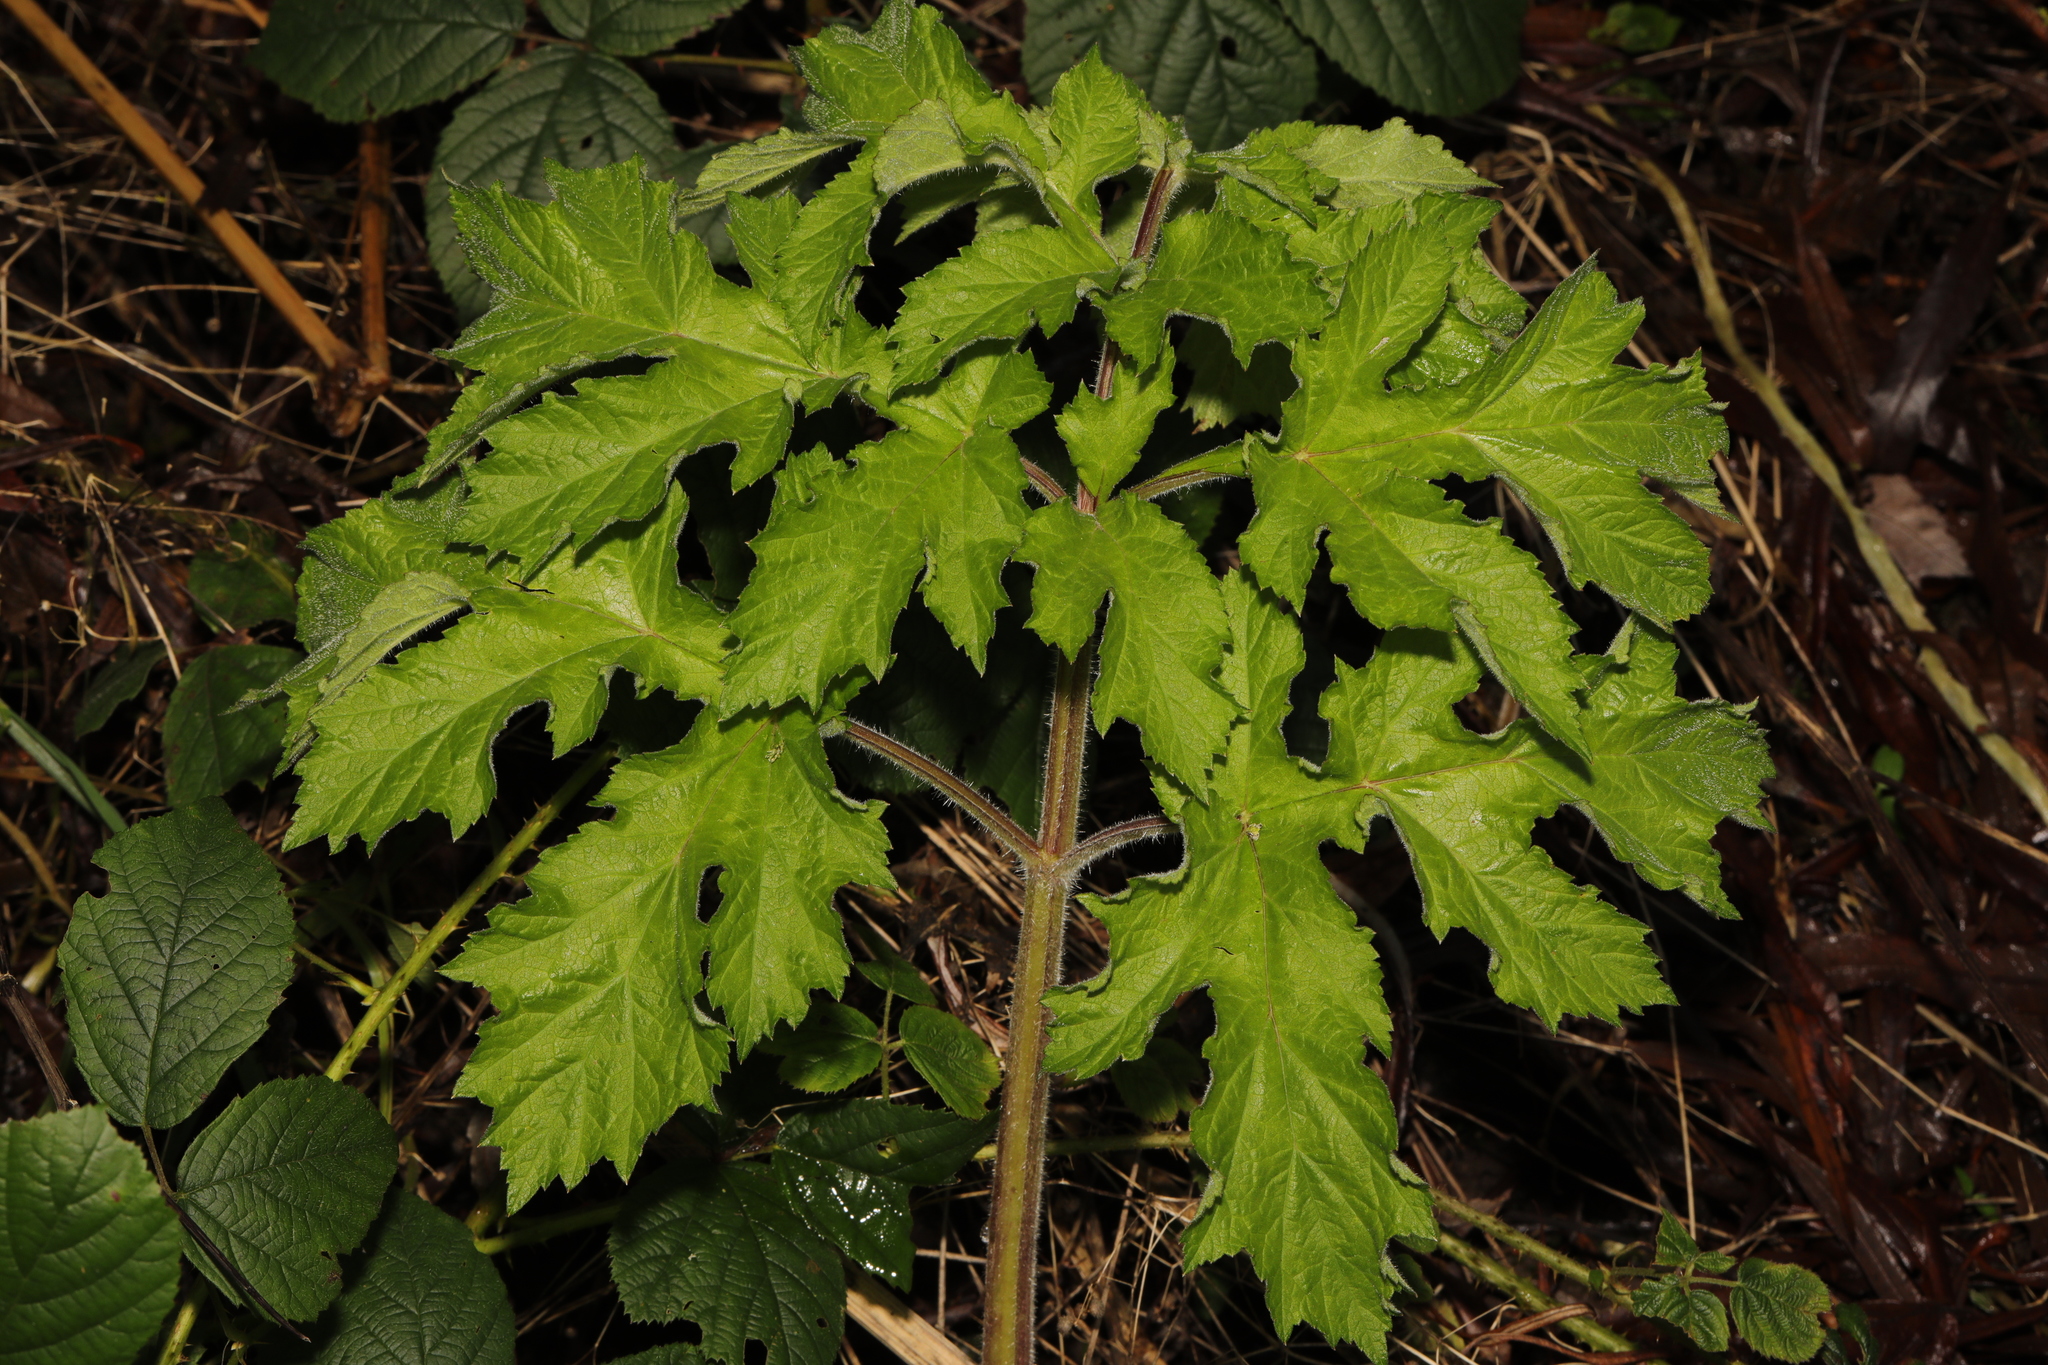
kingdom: Plantae
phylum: Tracheophyta
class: Magnoliopsida
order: Apiales
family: Apiaceae
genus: Heracleum
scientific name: Heracleum sphondylium
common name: Hogweed
